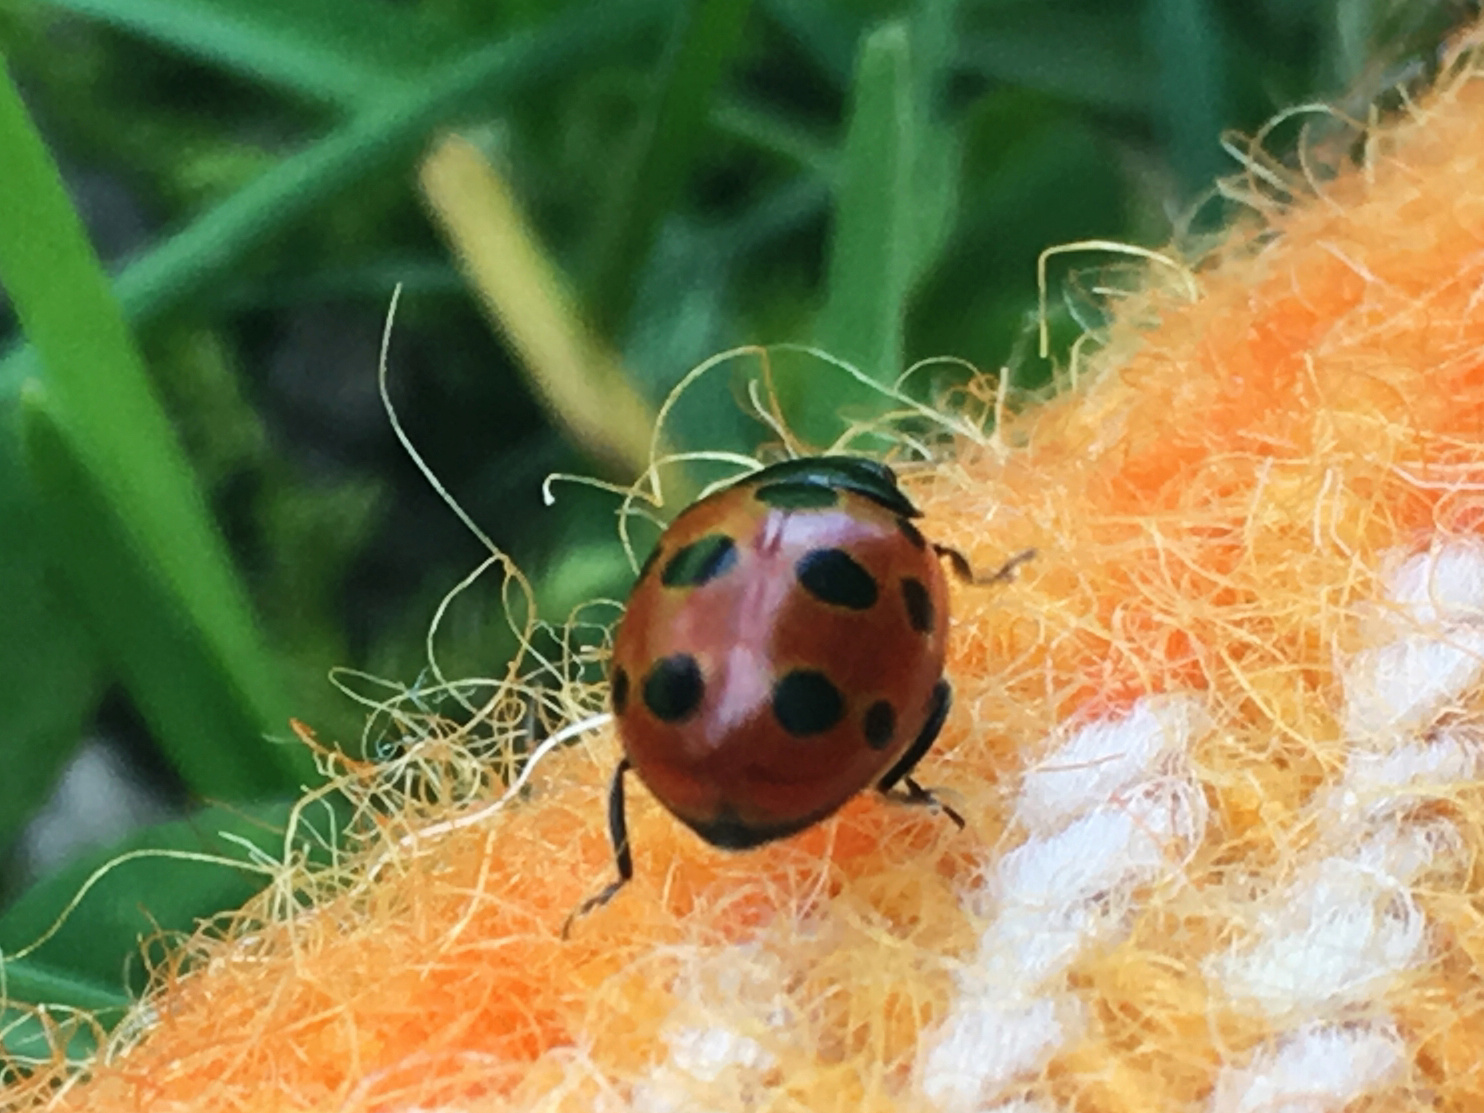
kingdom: Animalia
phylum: Arthropoda
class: Insecta
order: Coleoptera
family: Coccinellidae
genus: Coccinella
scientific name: Coccinella undecimpunctata
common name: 11-spot ladybird
